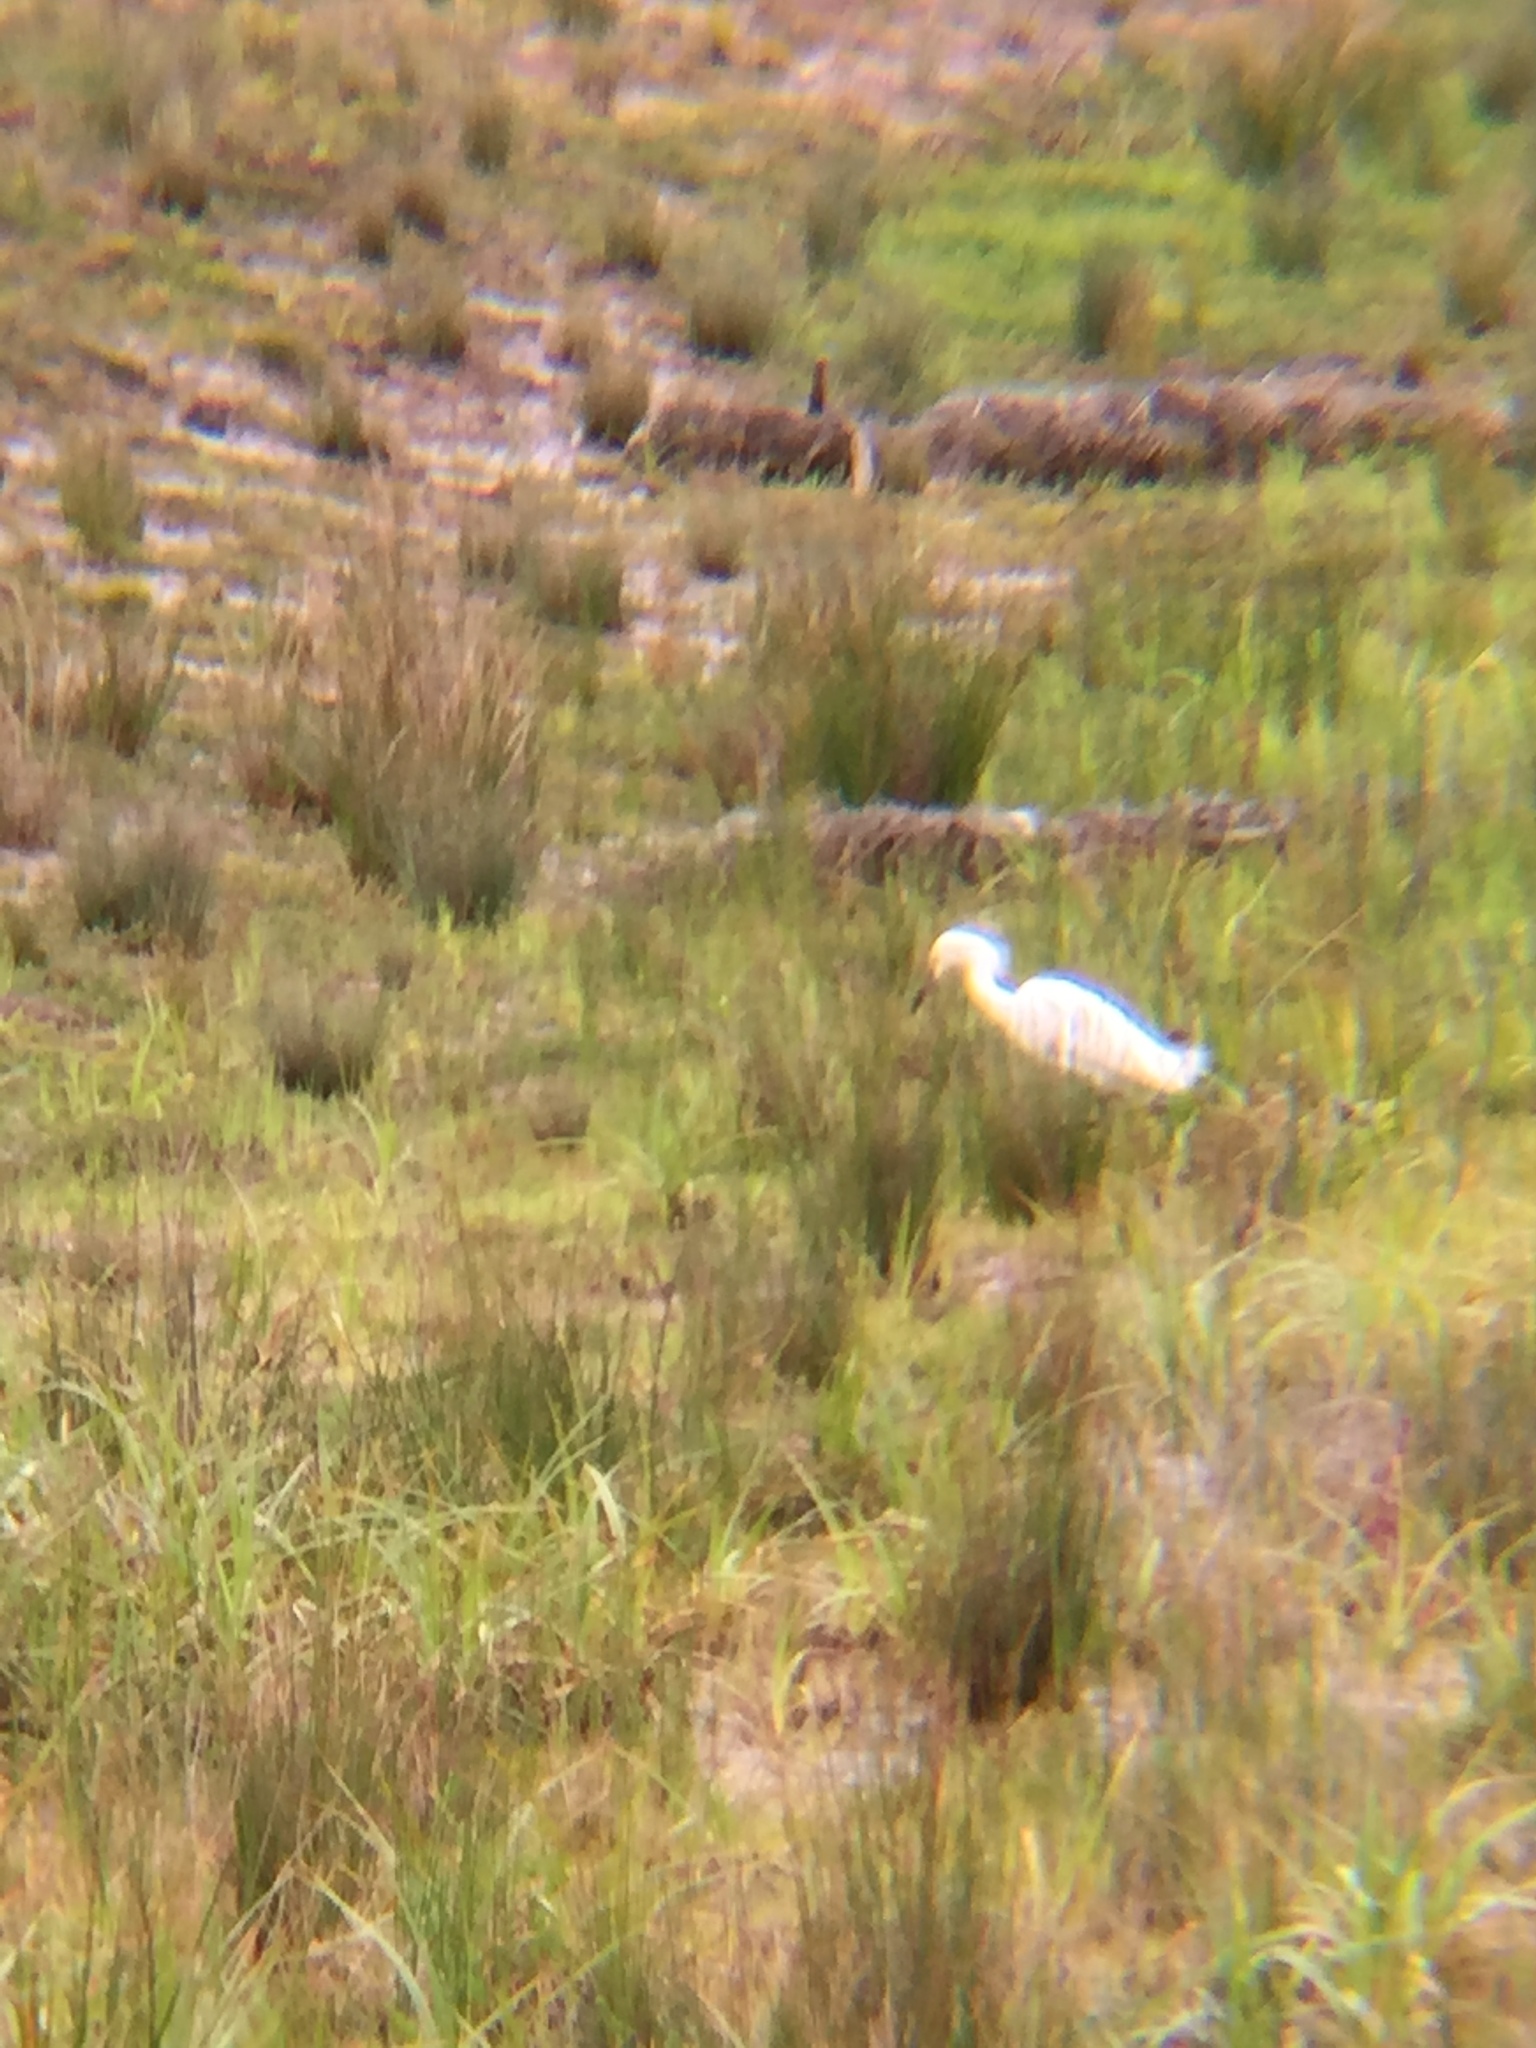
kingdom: Animalia
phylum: Chordata
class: Aves
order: Pelecaniformes
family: Ardeidae
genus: Egretta
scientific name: Egretta thula
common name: Snowy egret
